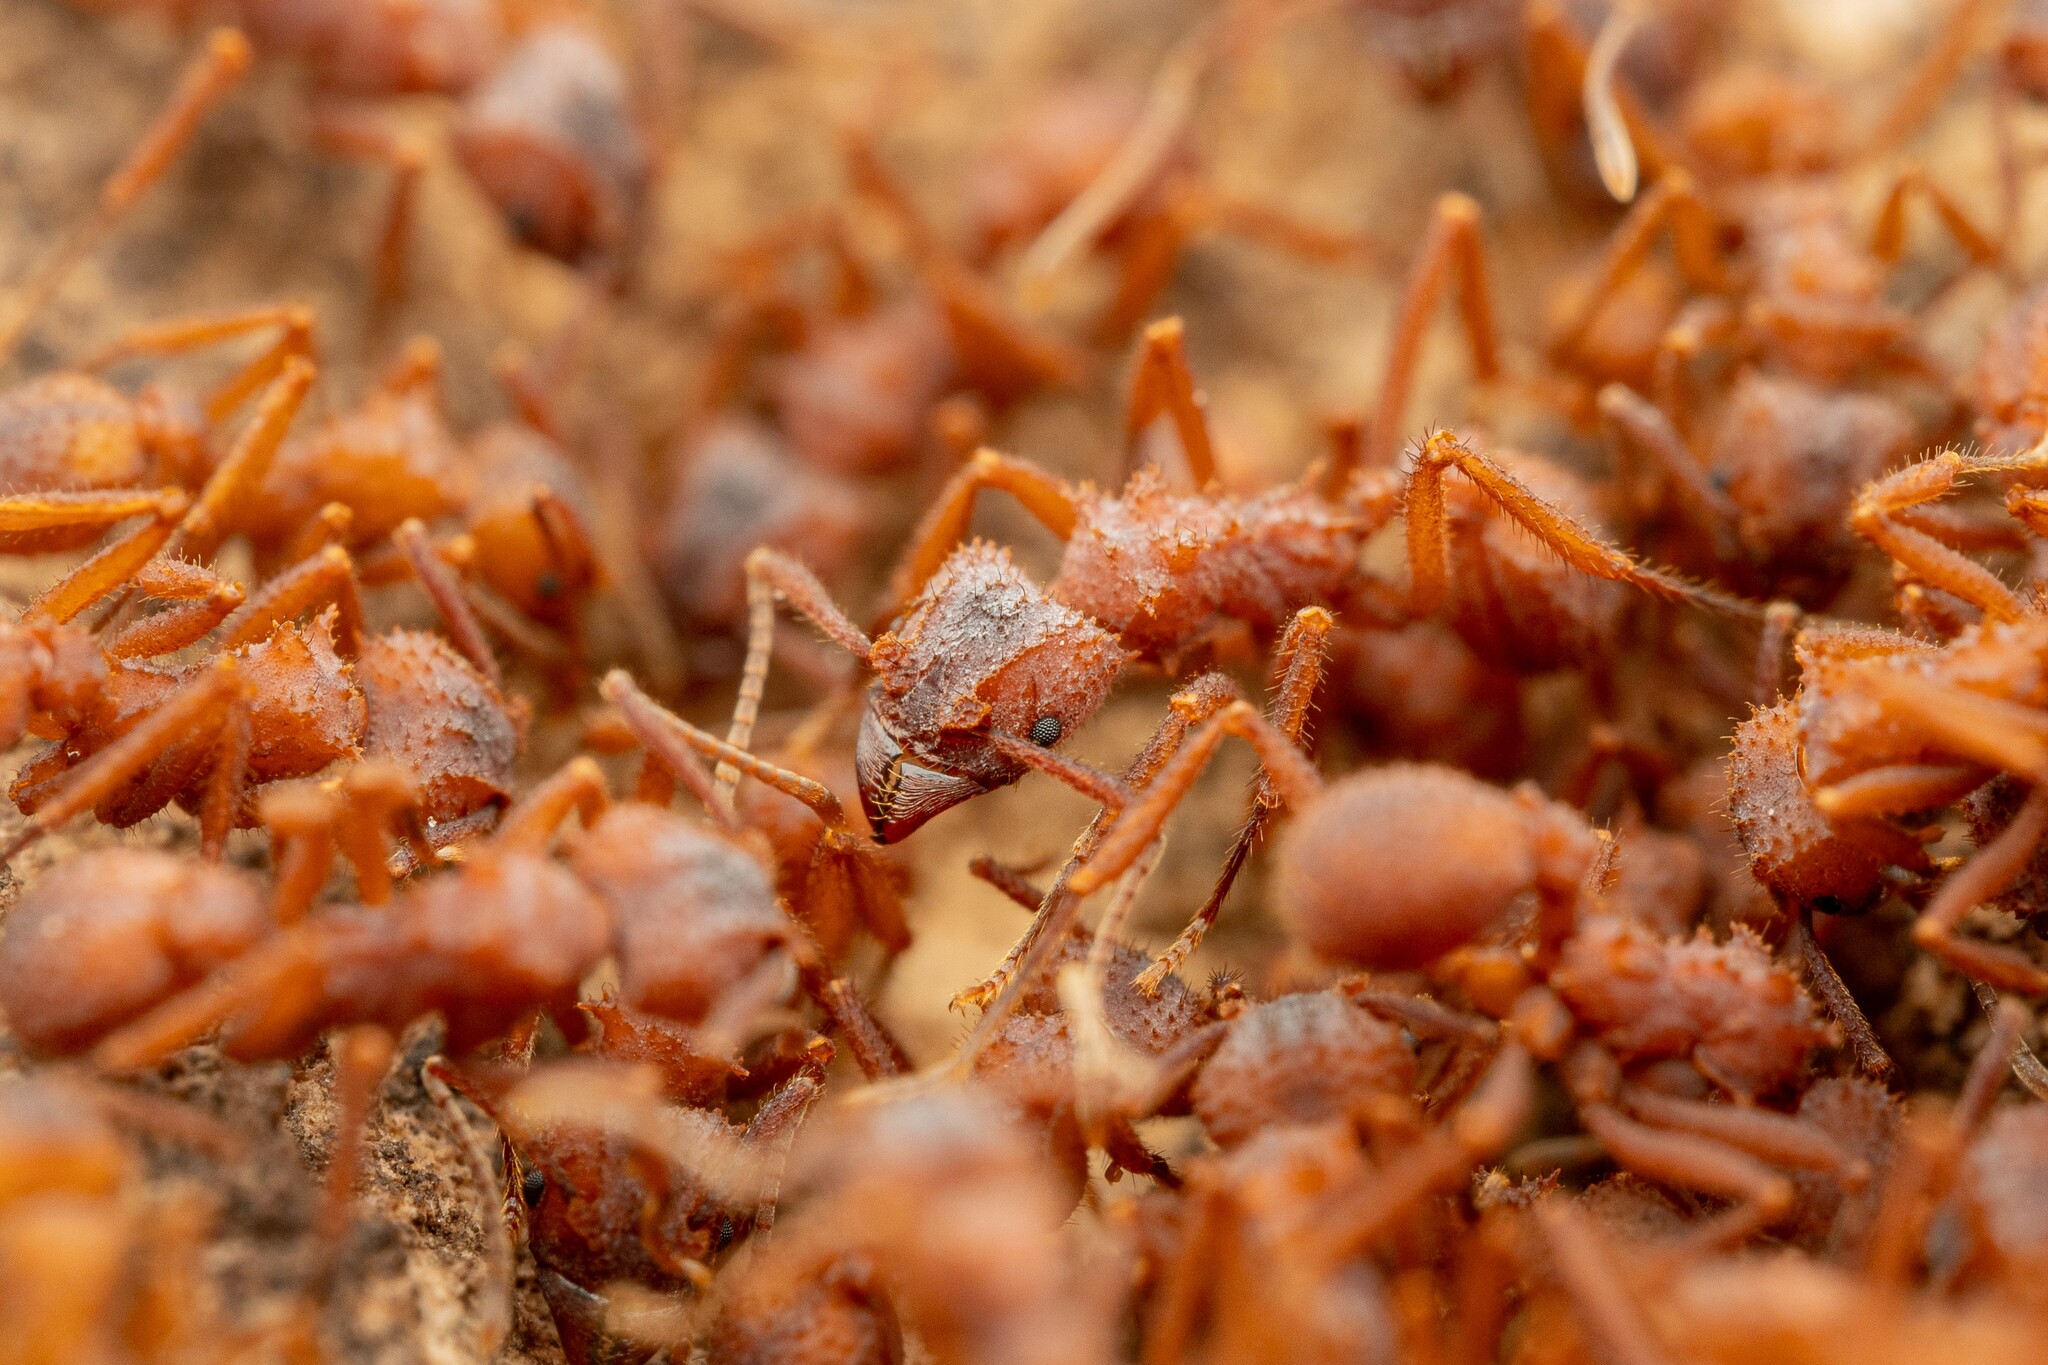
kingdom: Animalia
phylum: Arthropoda
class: Insecta
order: Hymenoptera
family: Formicidae
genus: Trachymyrmex
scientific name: Trachymyrmex arizonensis
